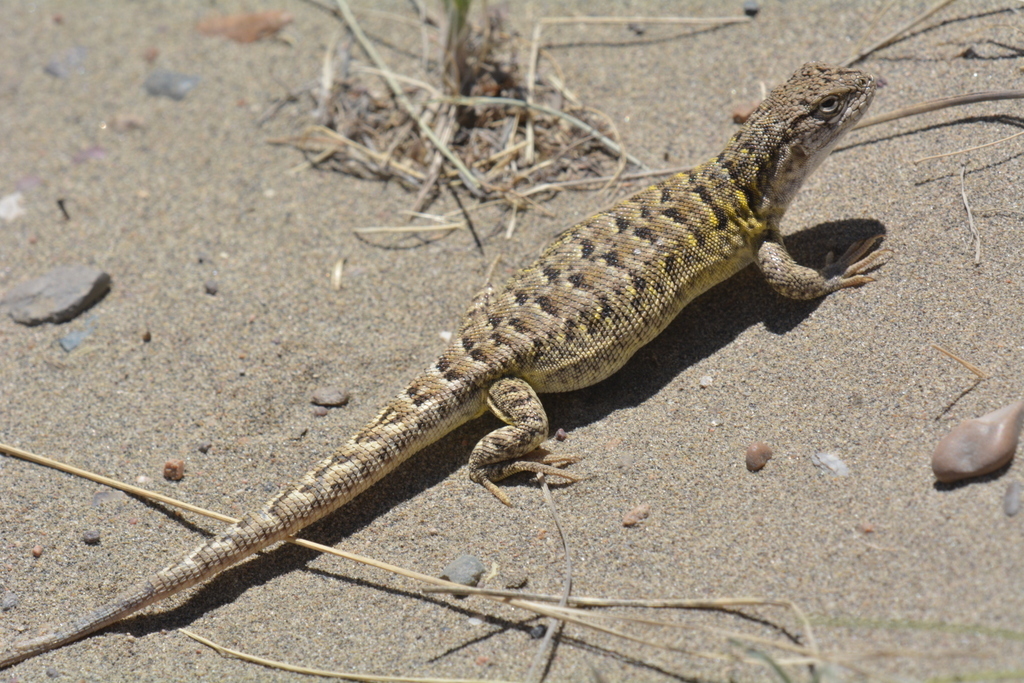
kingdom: Animalia
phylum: Chordata
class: Squamata
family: Liolaemidae
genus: Liolaemus
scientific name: Liolaemus melanops
